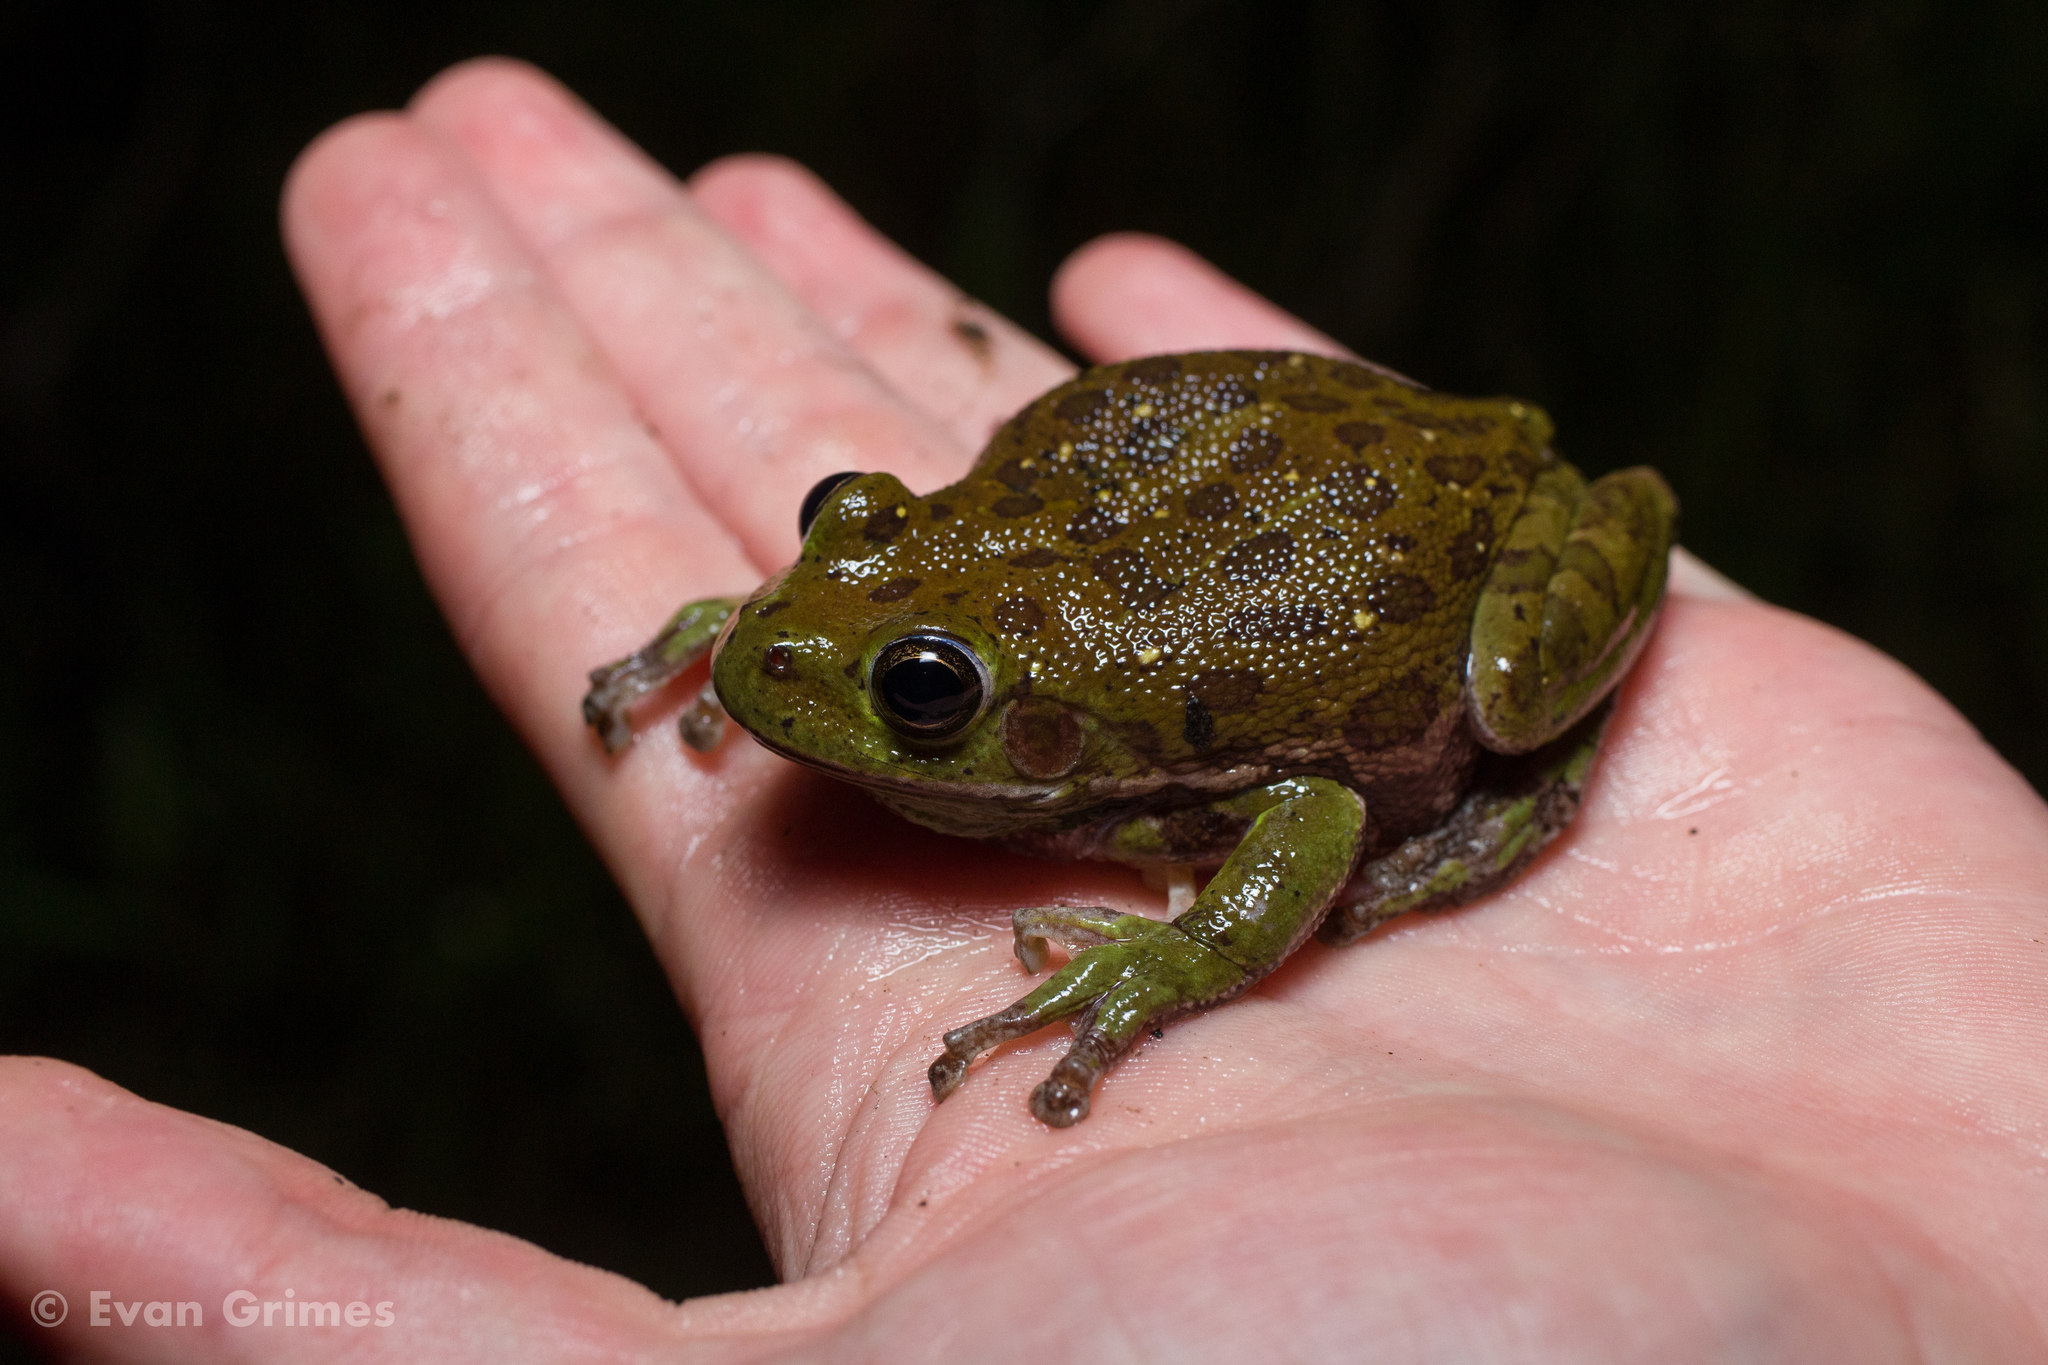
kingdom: Animalia
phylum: Chordata
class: Amphibia
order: Anura
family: Hylidae
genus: Dryophytes
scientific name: Dryophytes gratiosus
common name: Barking treefrog
